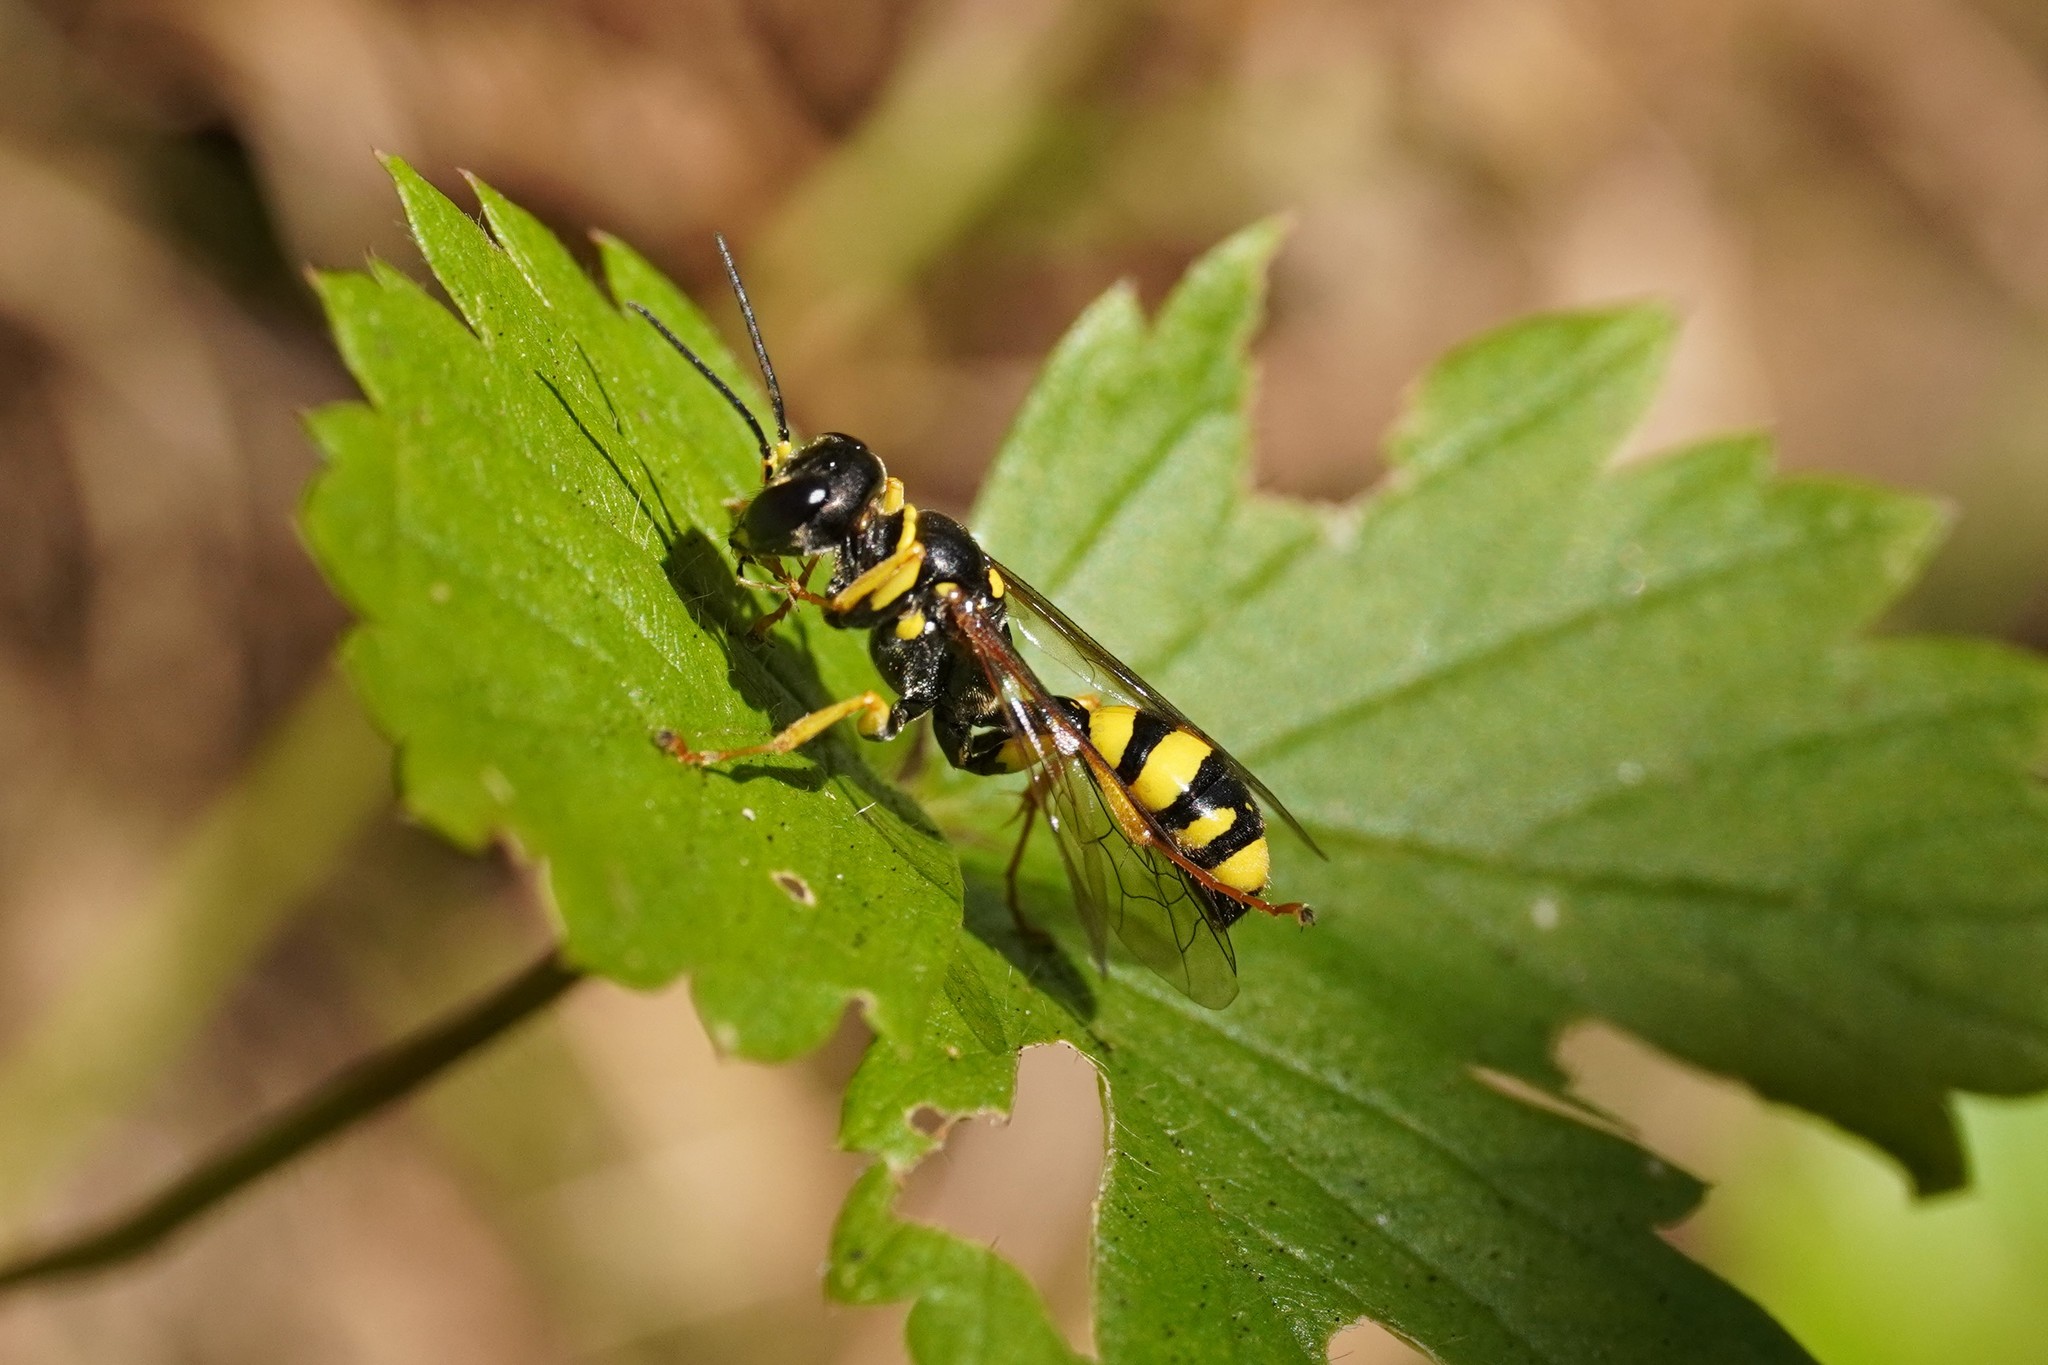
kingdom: Animalia
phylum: Arthropoda
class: Insecta
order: Hymenoptera
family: Crabronidae
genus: Mellinus
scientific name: Mellinus arvensis
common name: Field digger wasp
